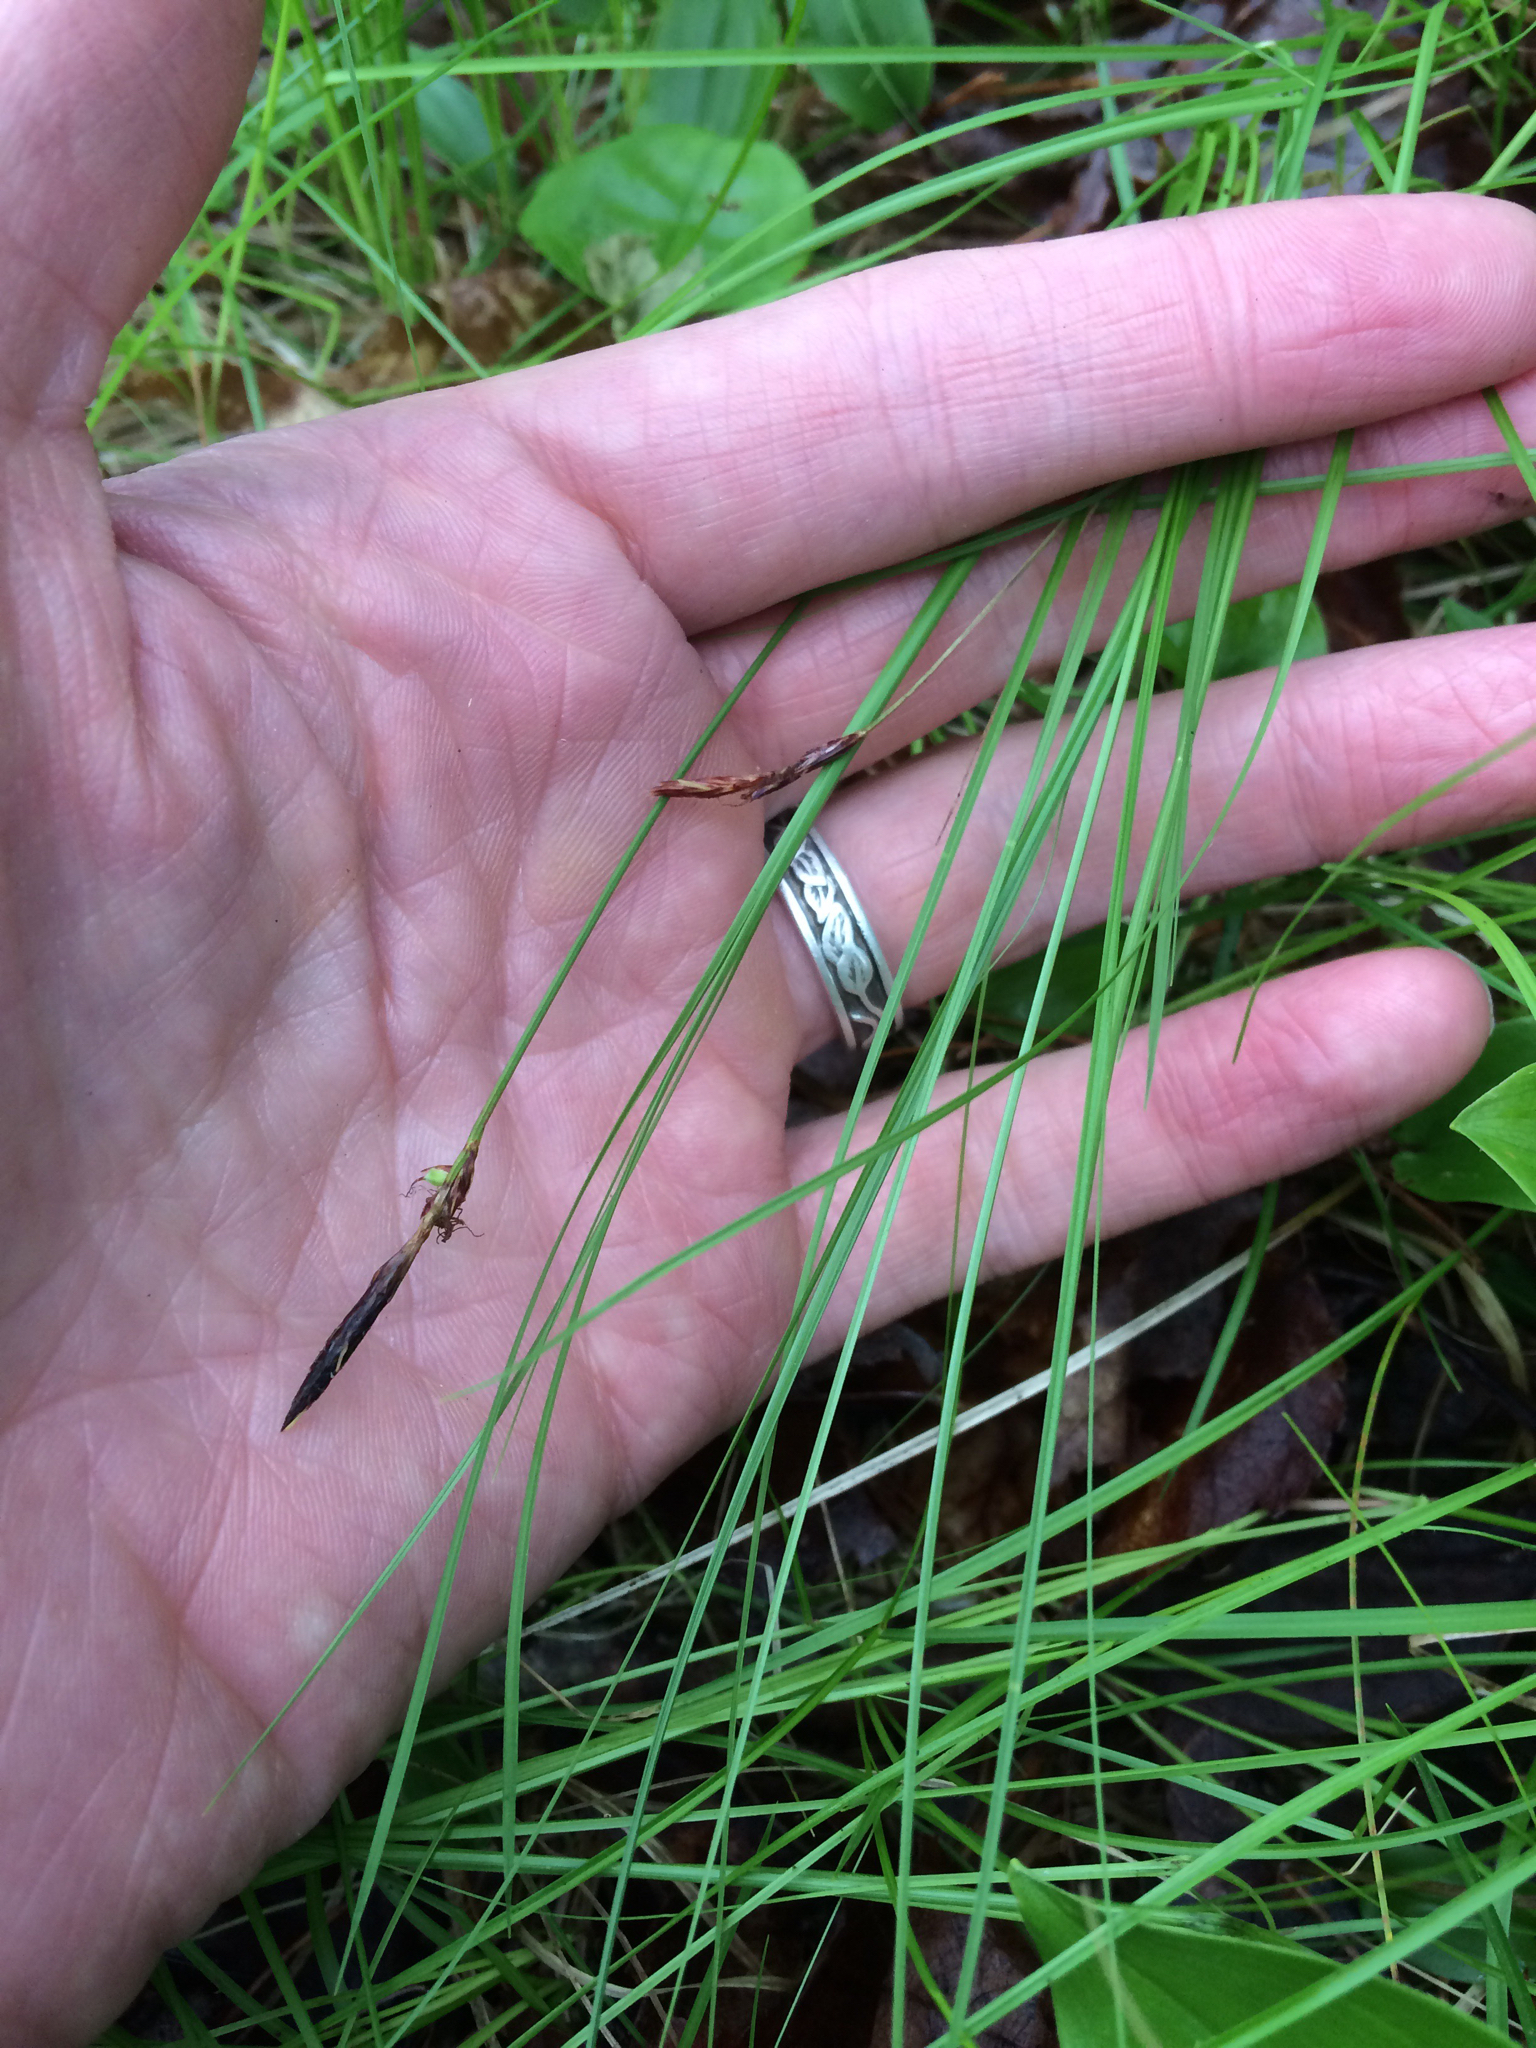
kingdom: Plantae
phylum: Tracheophyta
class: Liliopsida
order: Poales
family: Cyperaceae
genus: Carex
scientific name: Carex pensylvanica
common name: Common oak sedge
